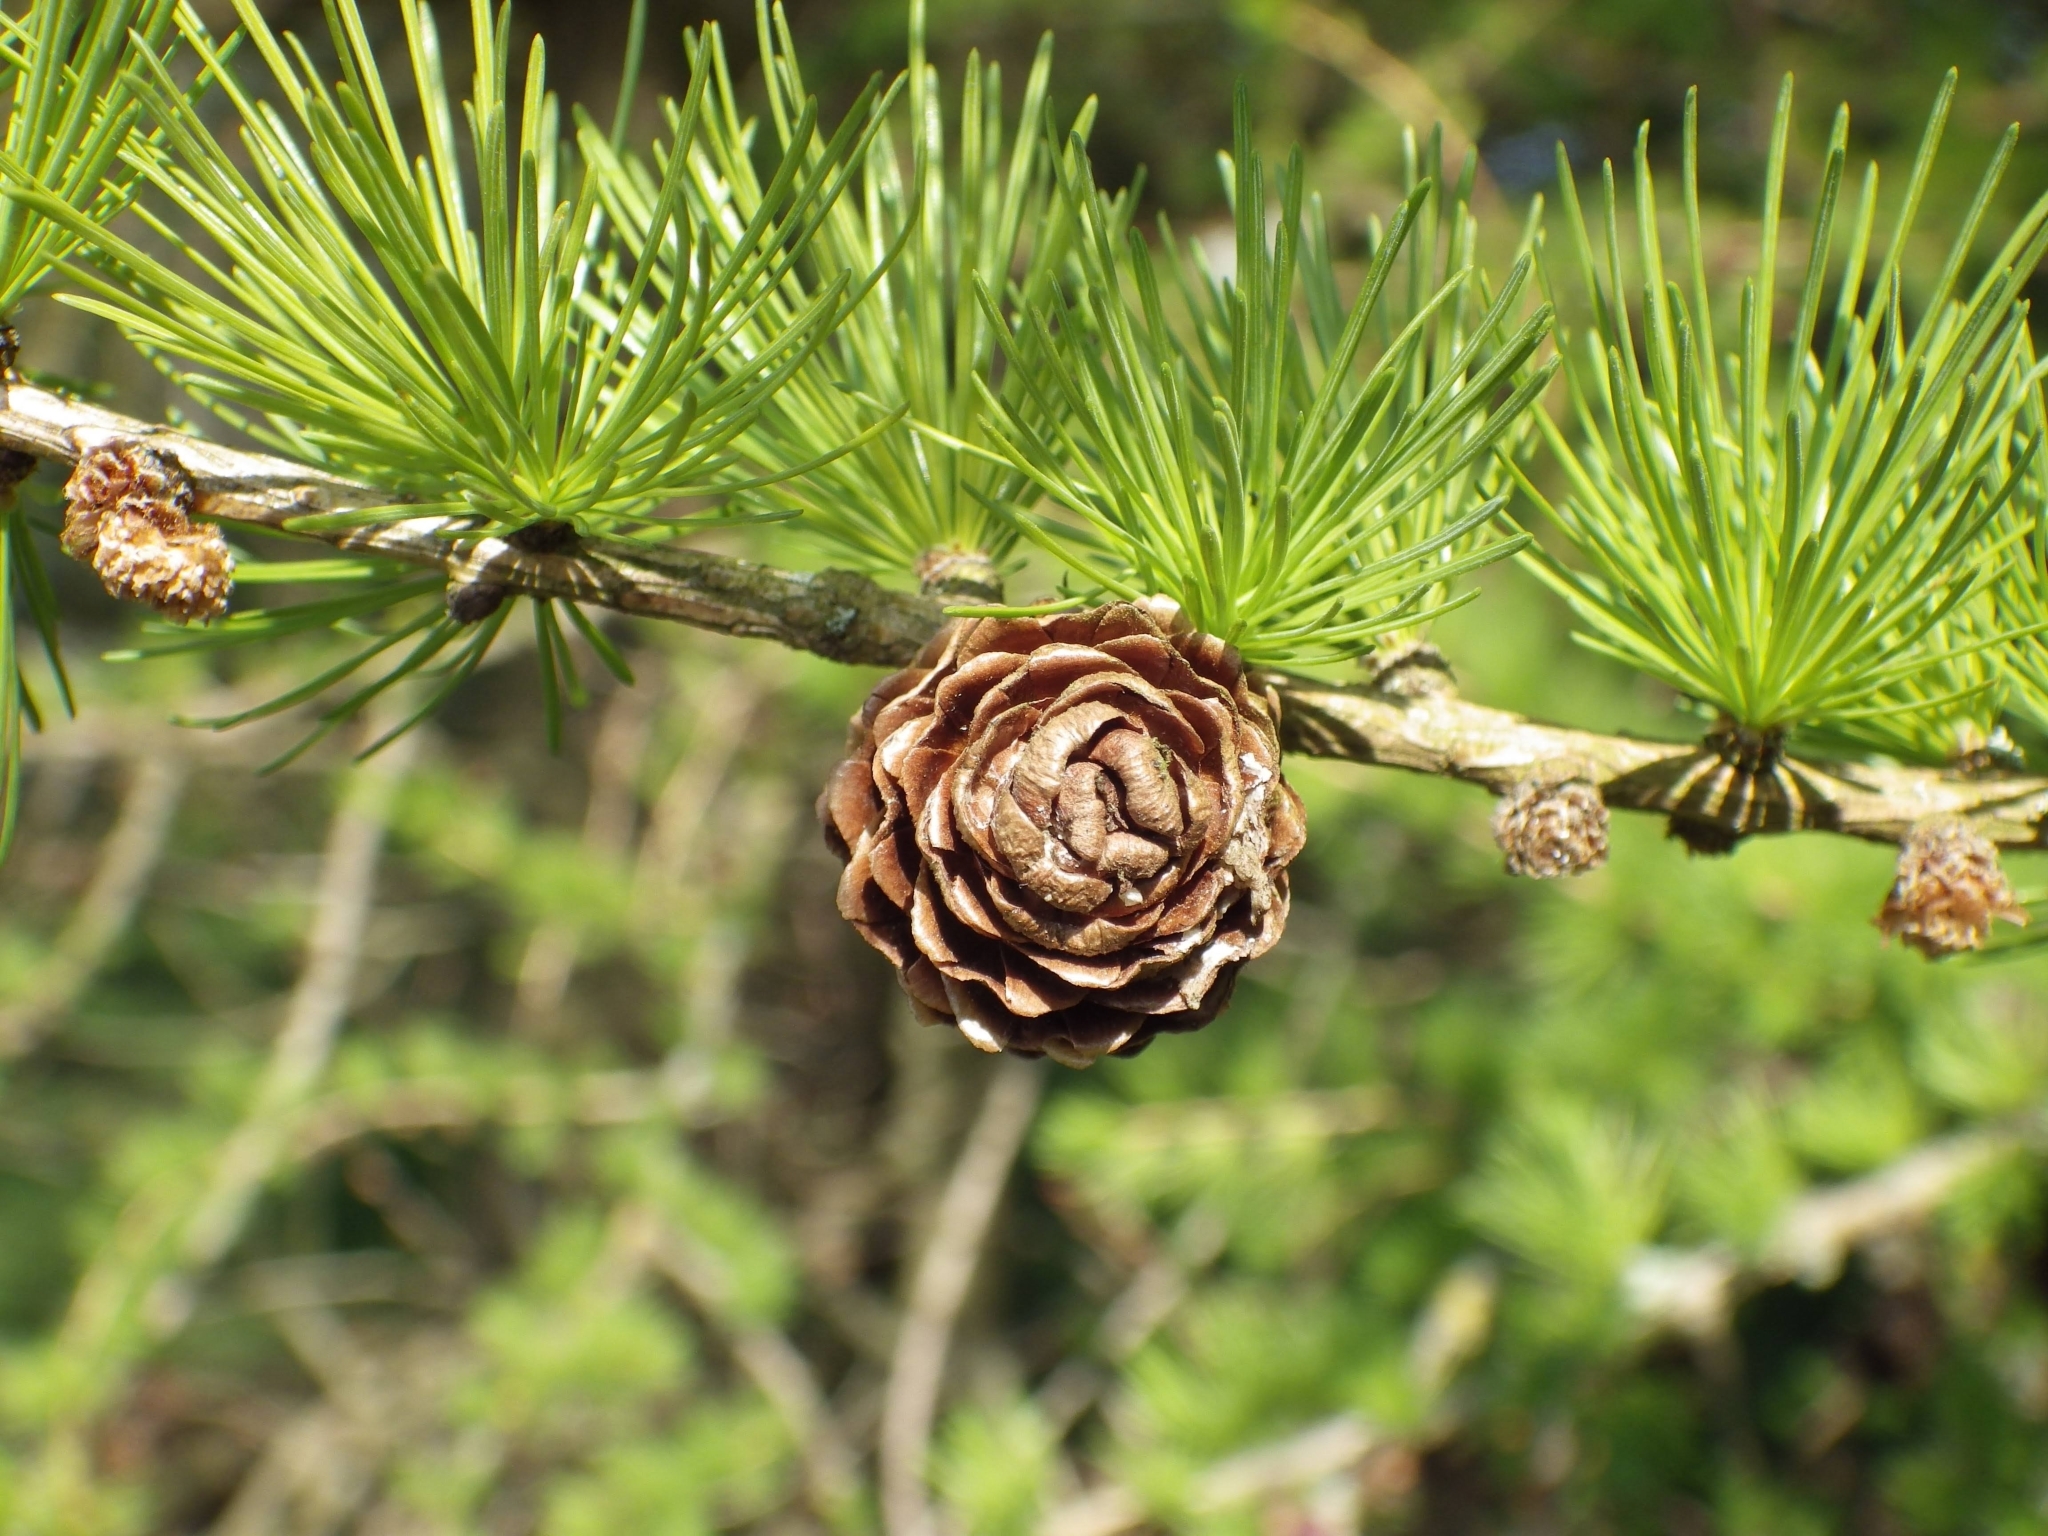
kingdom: Plantae
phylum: Tracheophyta
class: Pinopsida
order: Pinales
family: Pinaceae
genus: Larix
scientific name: Larix decidua
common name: European larch
